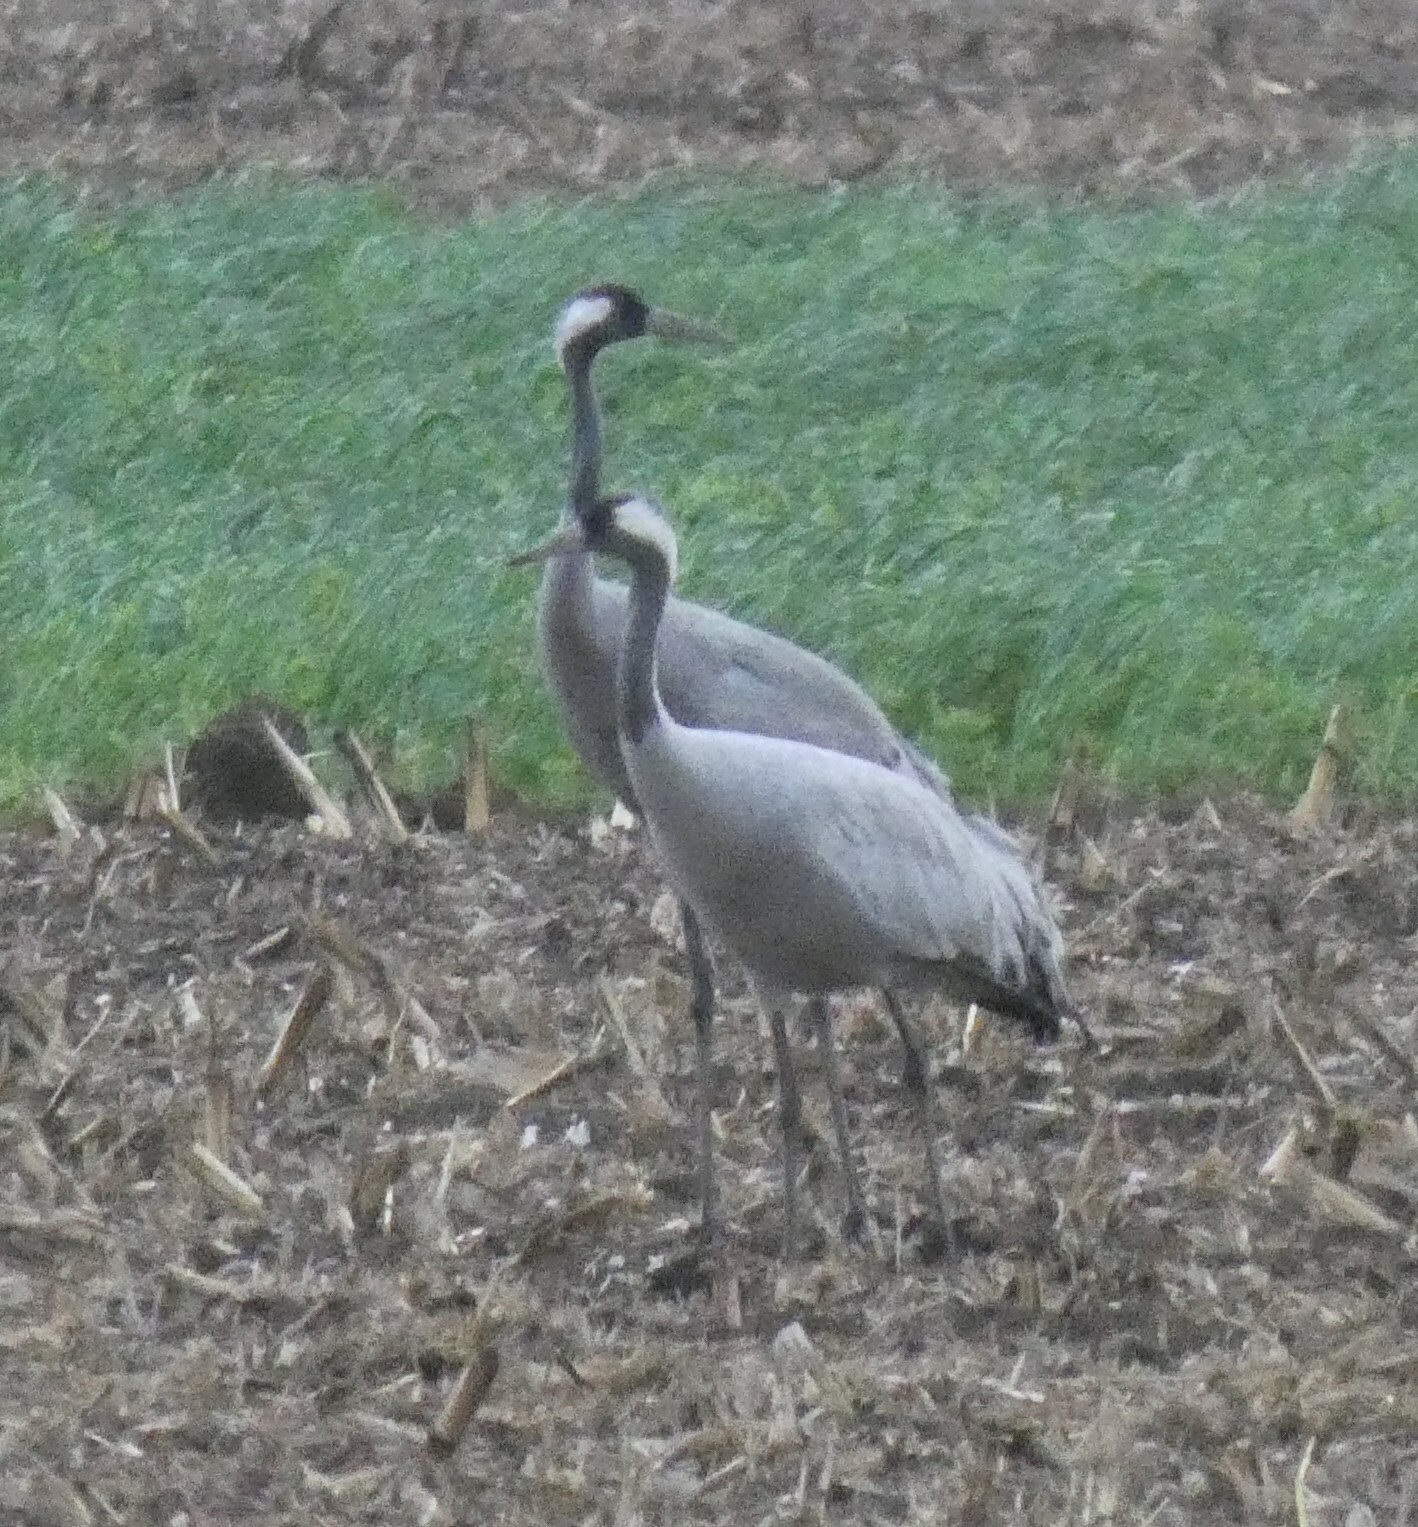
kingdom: Animalia
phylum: Chordata
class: Aves
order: Gruiformes
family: Gruidae
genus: Grus
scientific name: Grus grus
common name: Common crane
